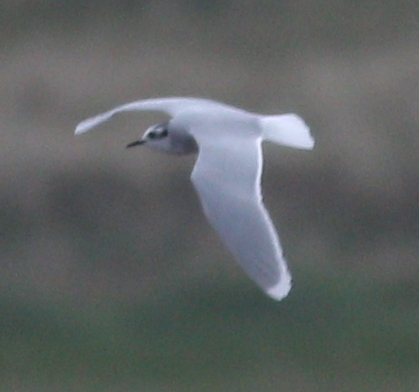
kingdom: Animalia
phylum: Chordata
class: Aves
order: Charadriiformes
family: Laridae
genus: Hydrocoloeus
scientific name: Hydrocoloeus minutus
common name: Little gull
